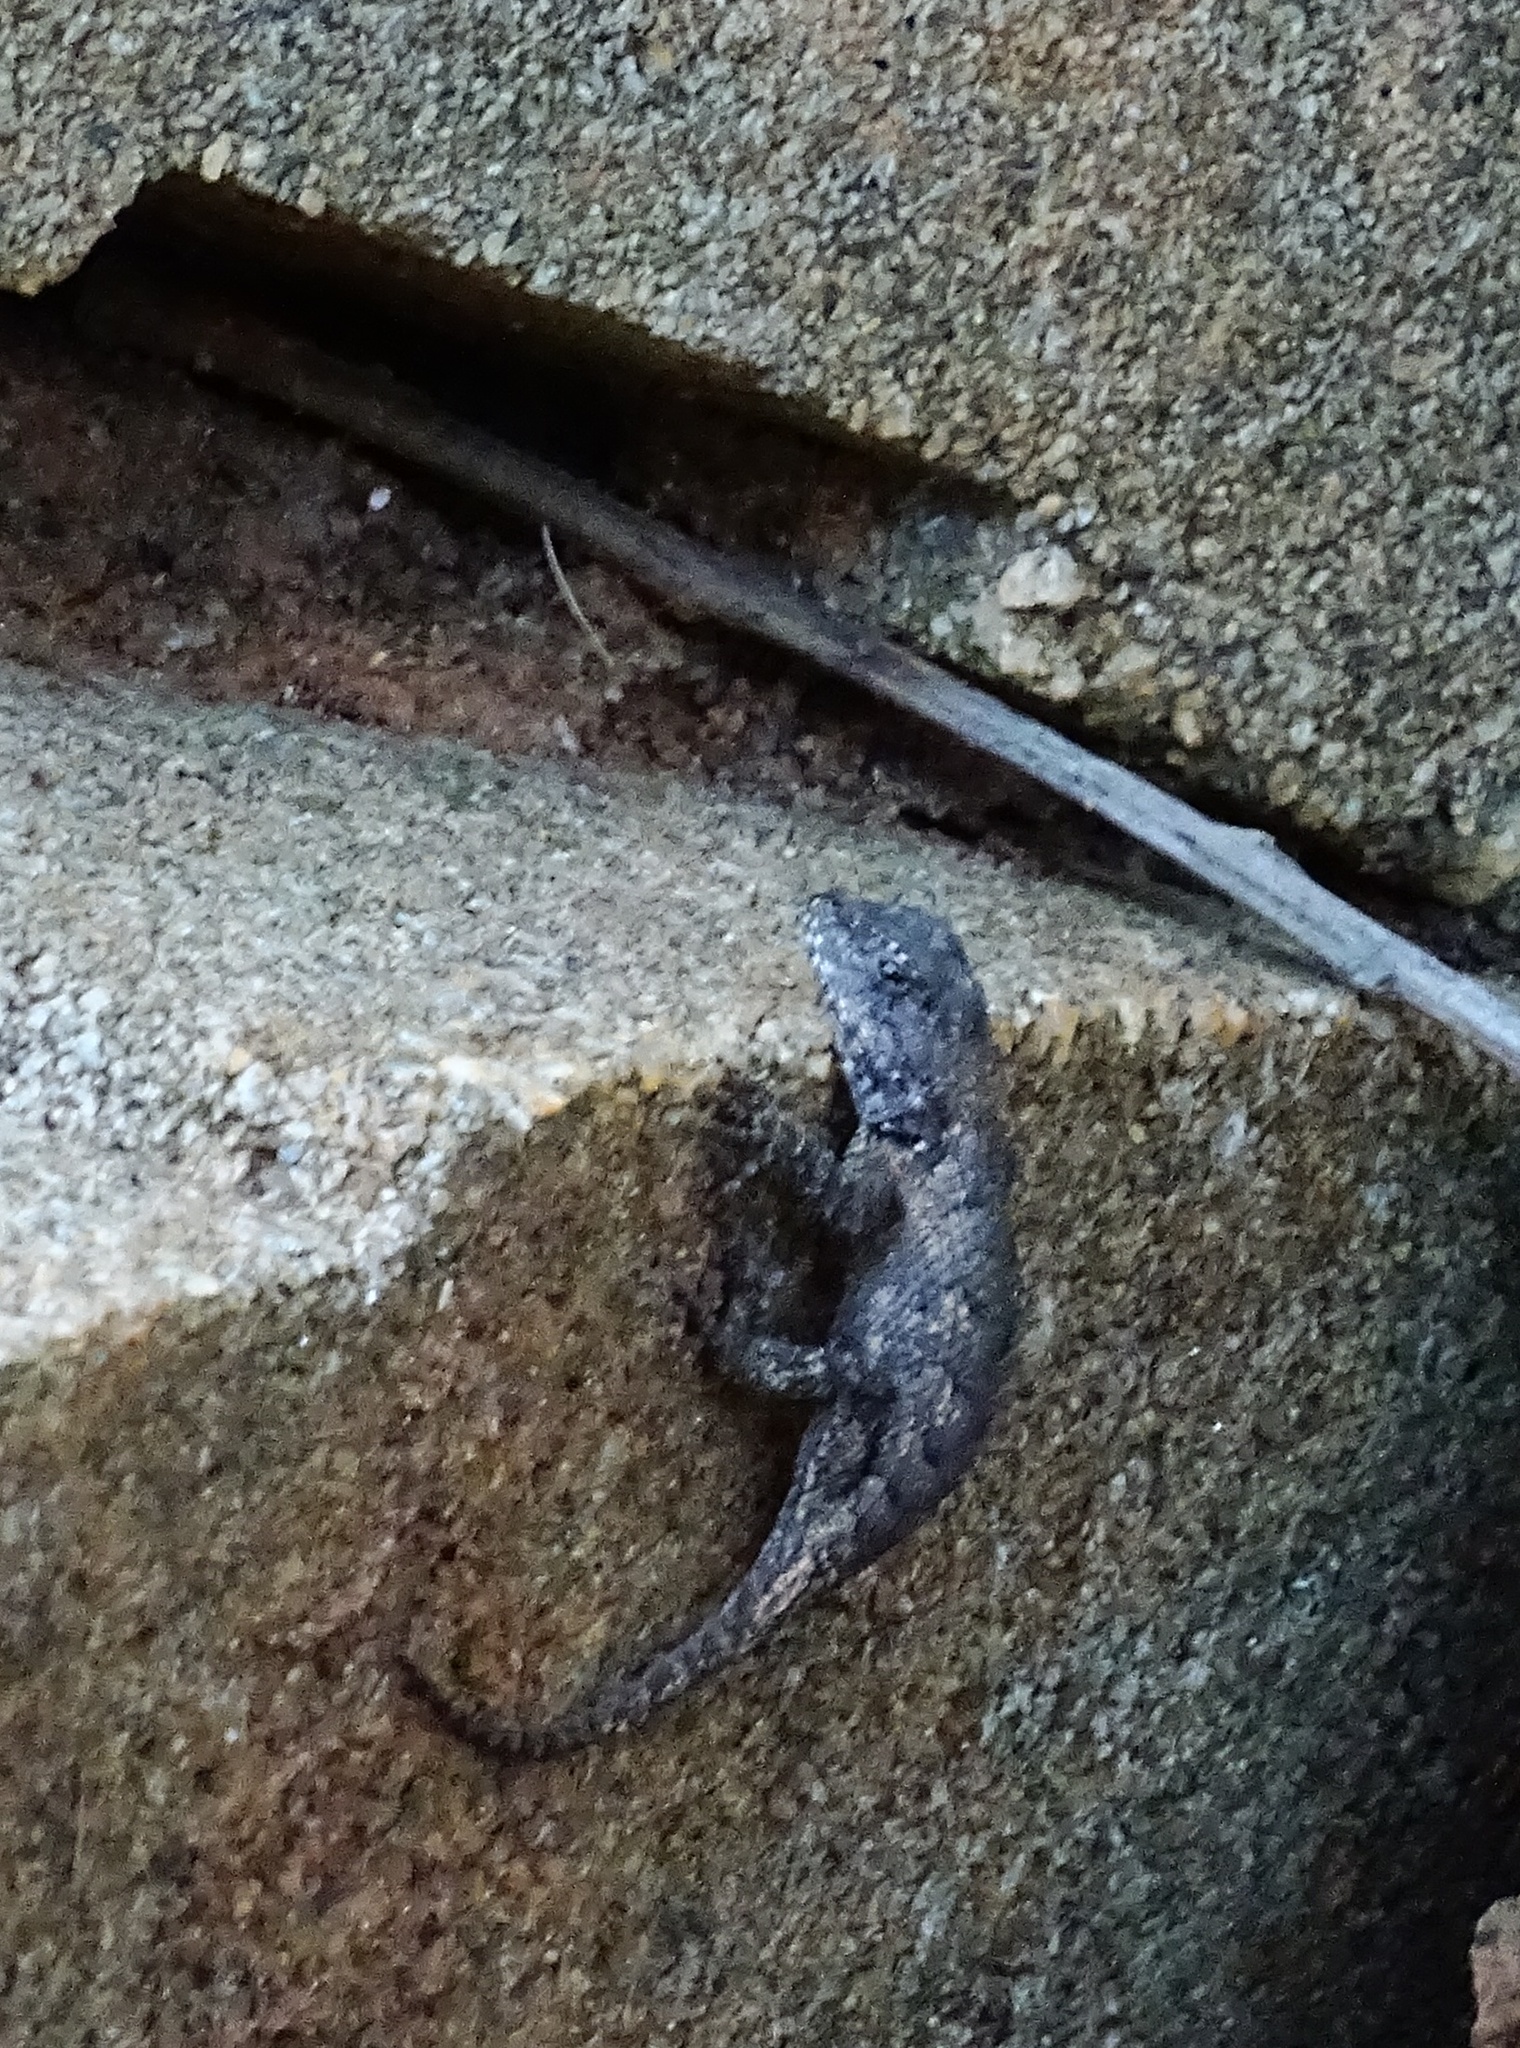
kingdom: Animalia
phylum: Chordata
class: Squamata
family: Phrynosomatidae
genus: Sceloporus
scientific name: Sceloporus undulatus
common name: Eastern fence lizard
